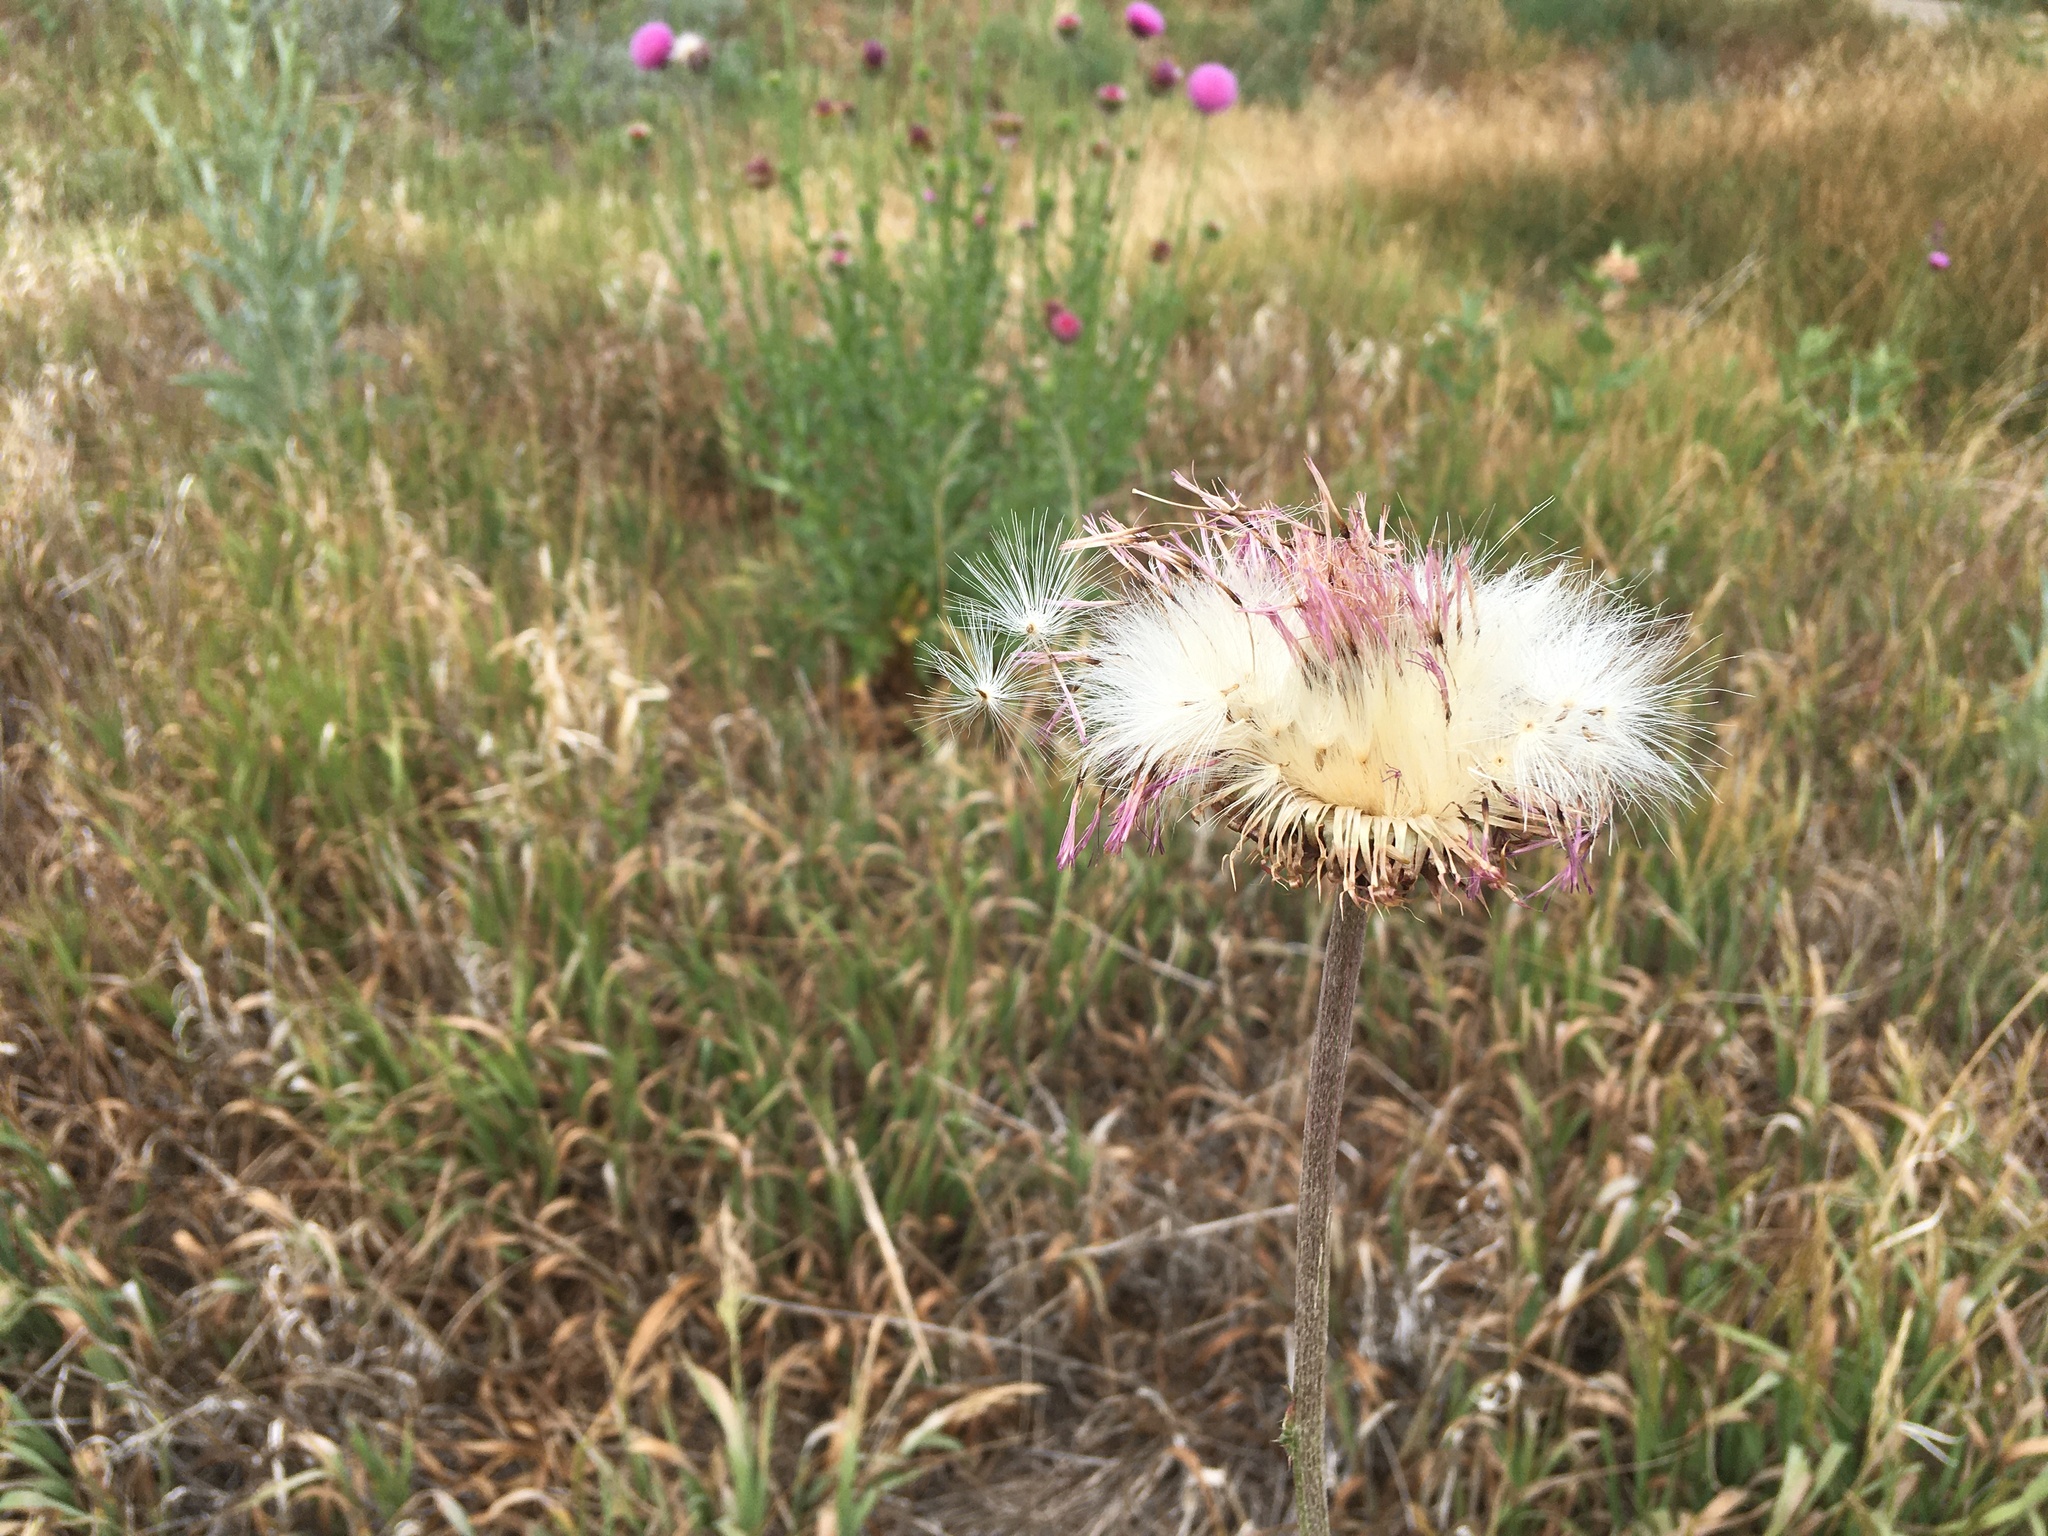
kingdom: Plantae
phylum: Tracheophyta
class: Magnoliopsida
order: Asterales
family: Asteraceae
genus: Carduus
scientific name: Carduus nutans
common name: Musk thistle
